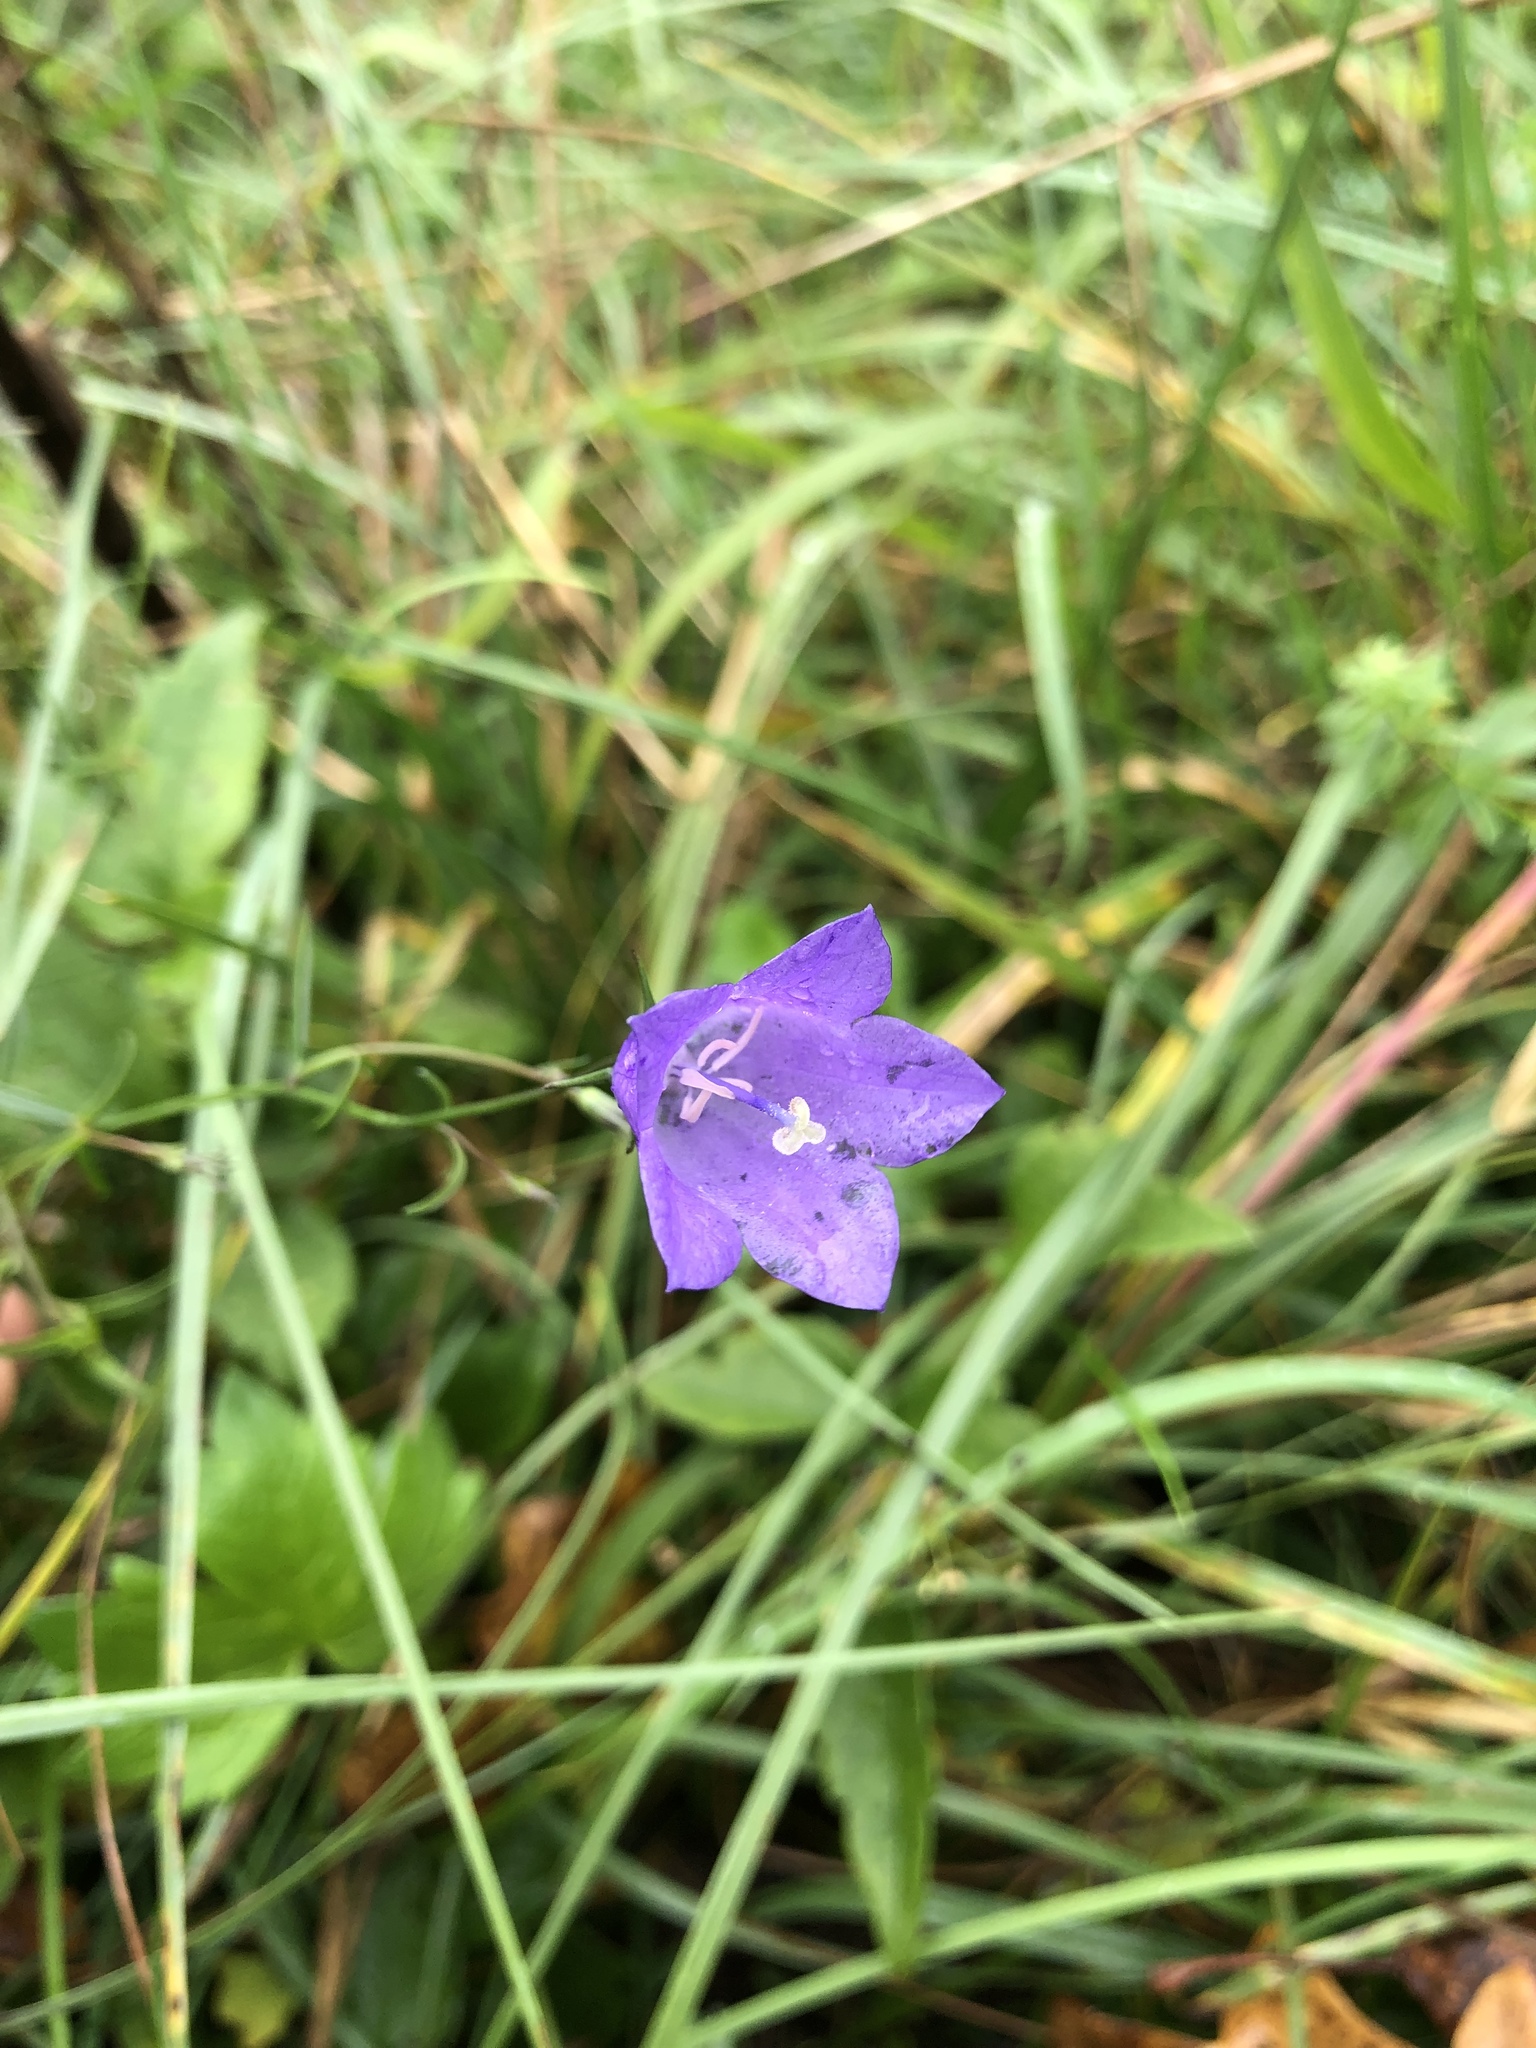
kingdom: Plantae
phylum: Tracheophyta
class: Magnoliopsida
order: Asterales
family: Campanulaceae
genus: Campanula
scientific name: Campanula rotundifolia
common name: Harebell
